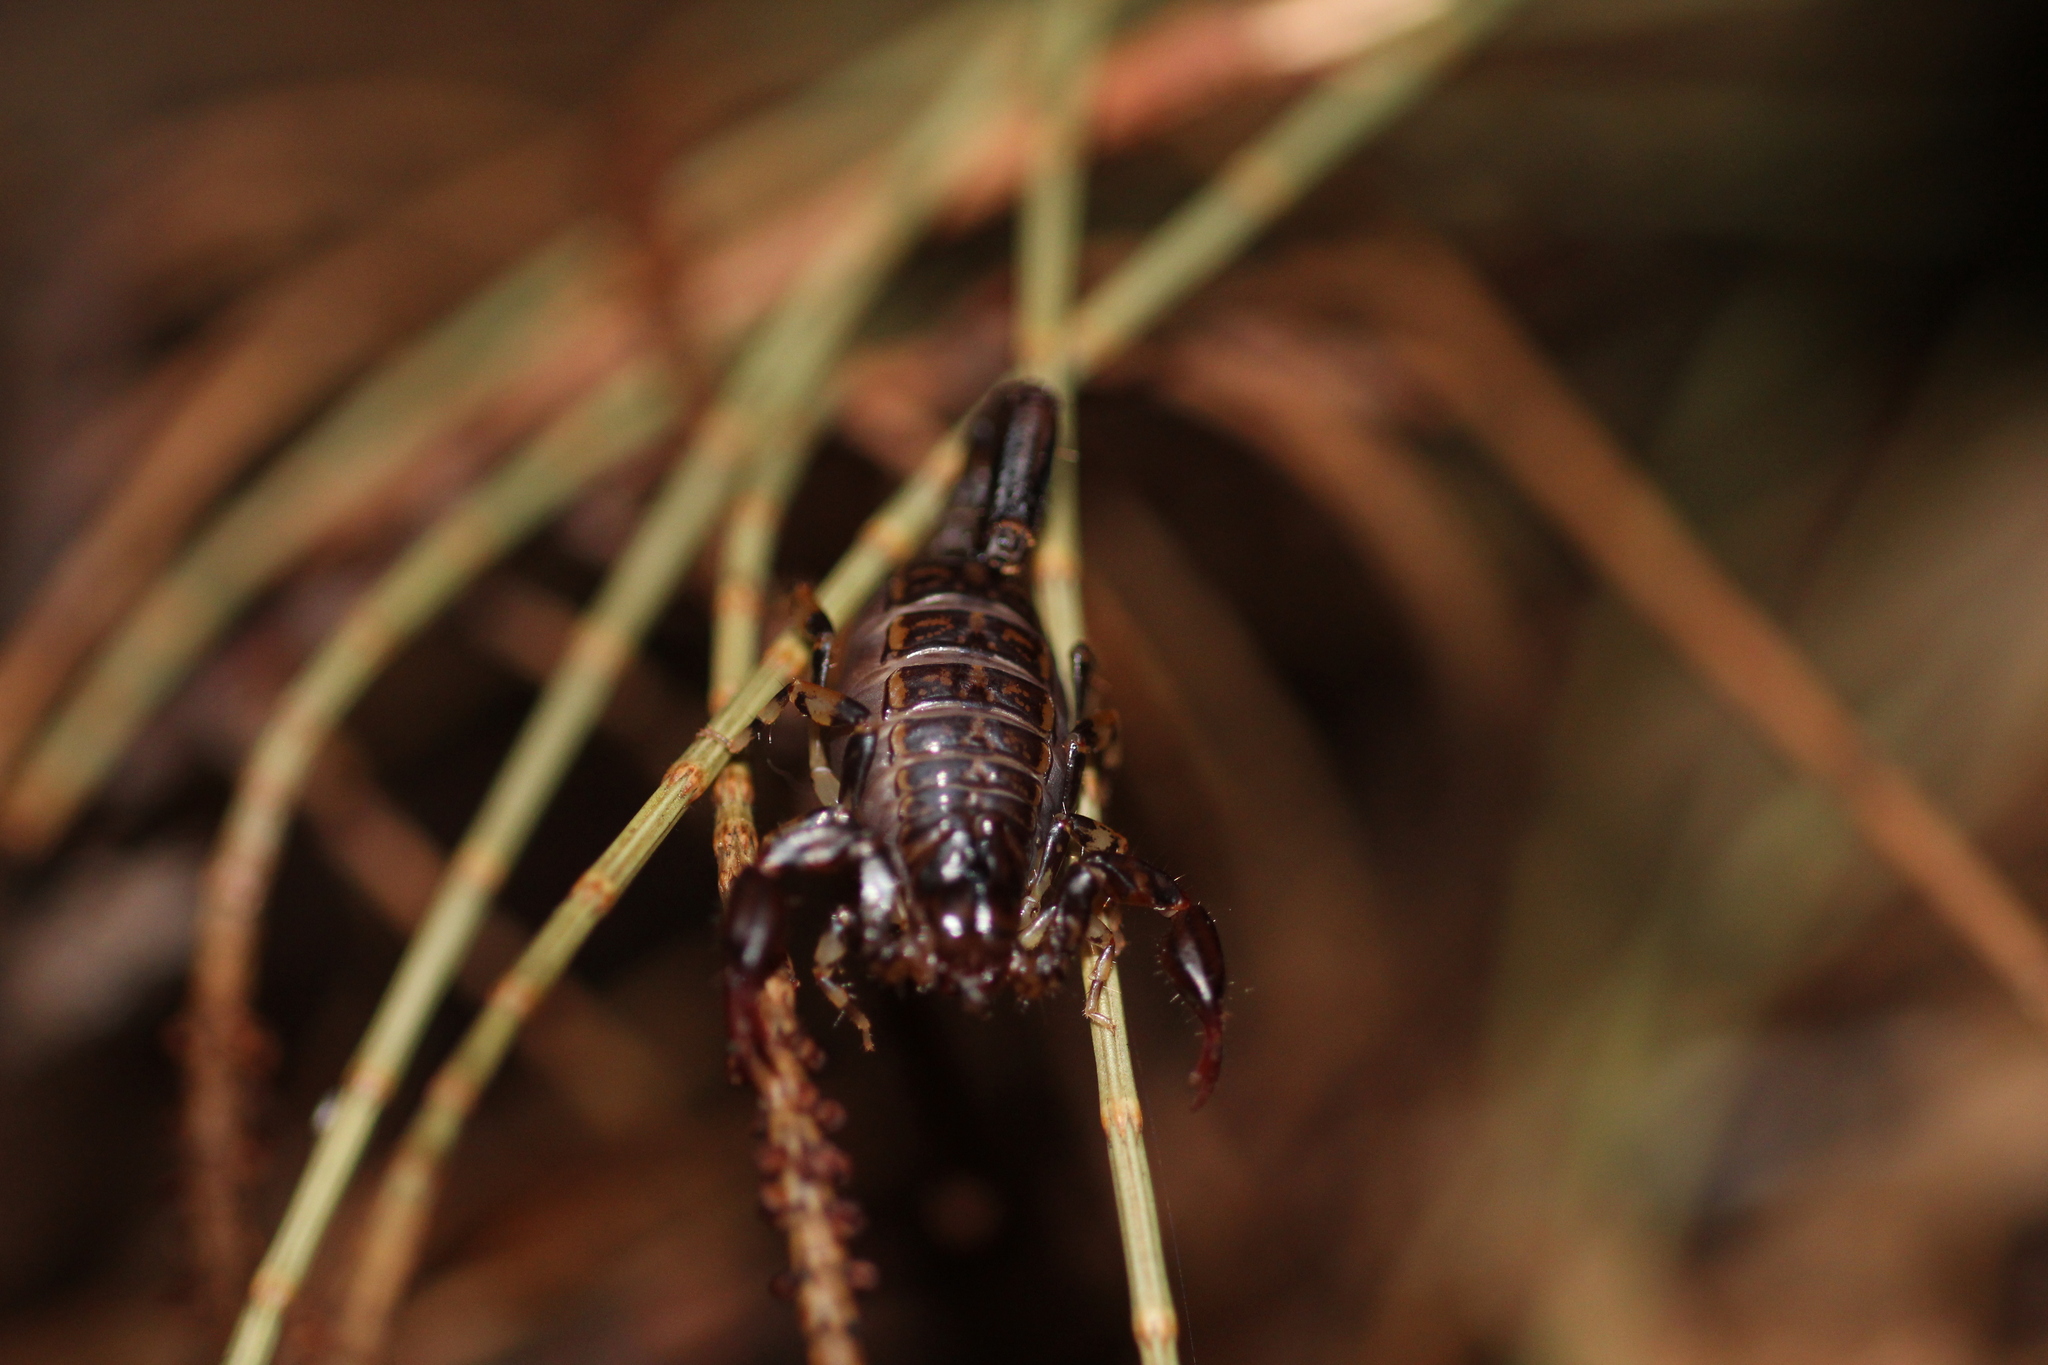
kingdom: Animalia
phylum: Arthropoda
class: Arachnida
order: Scorpiones
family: Bothriuridae
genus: Cercophonius
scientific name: Cercophonius sulcatus
